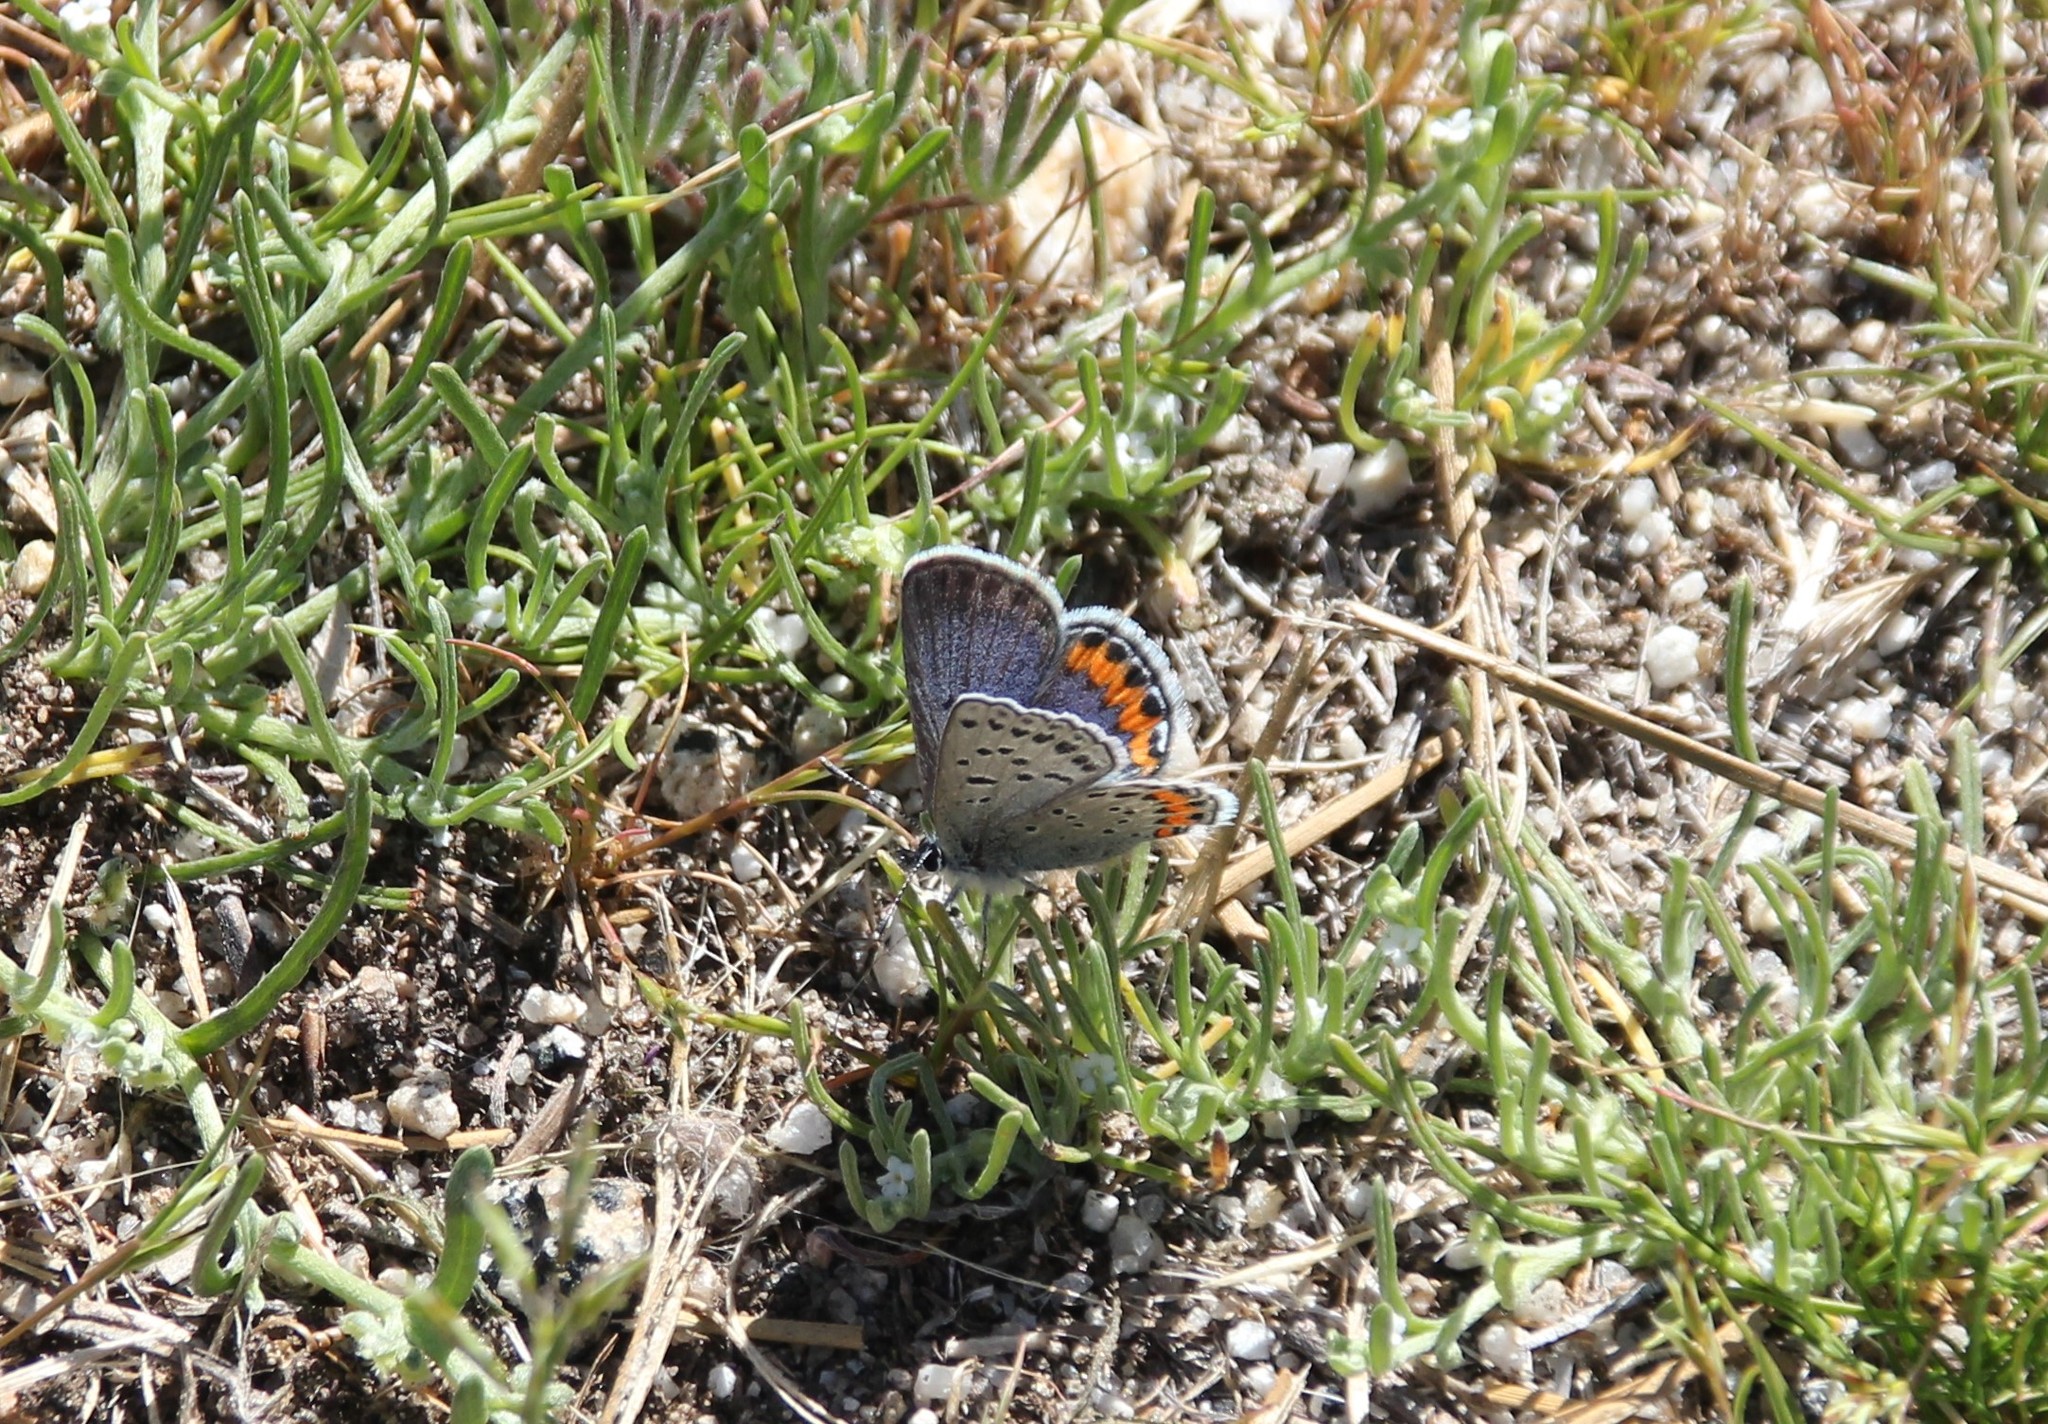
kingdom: Animalia
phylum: Arthropoda
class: Insecta
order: Lepidoptera
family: Lycaenidae
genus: Icaricia
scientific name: Icaricia lupini
